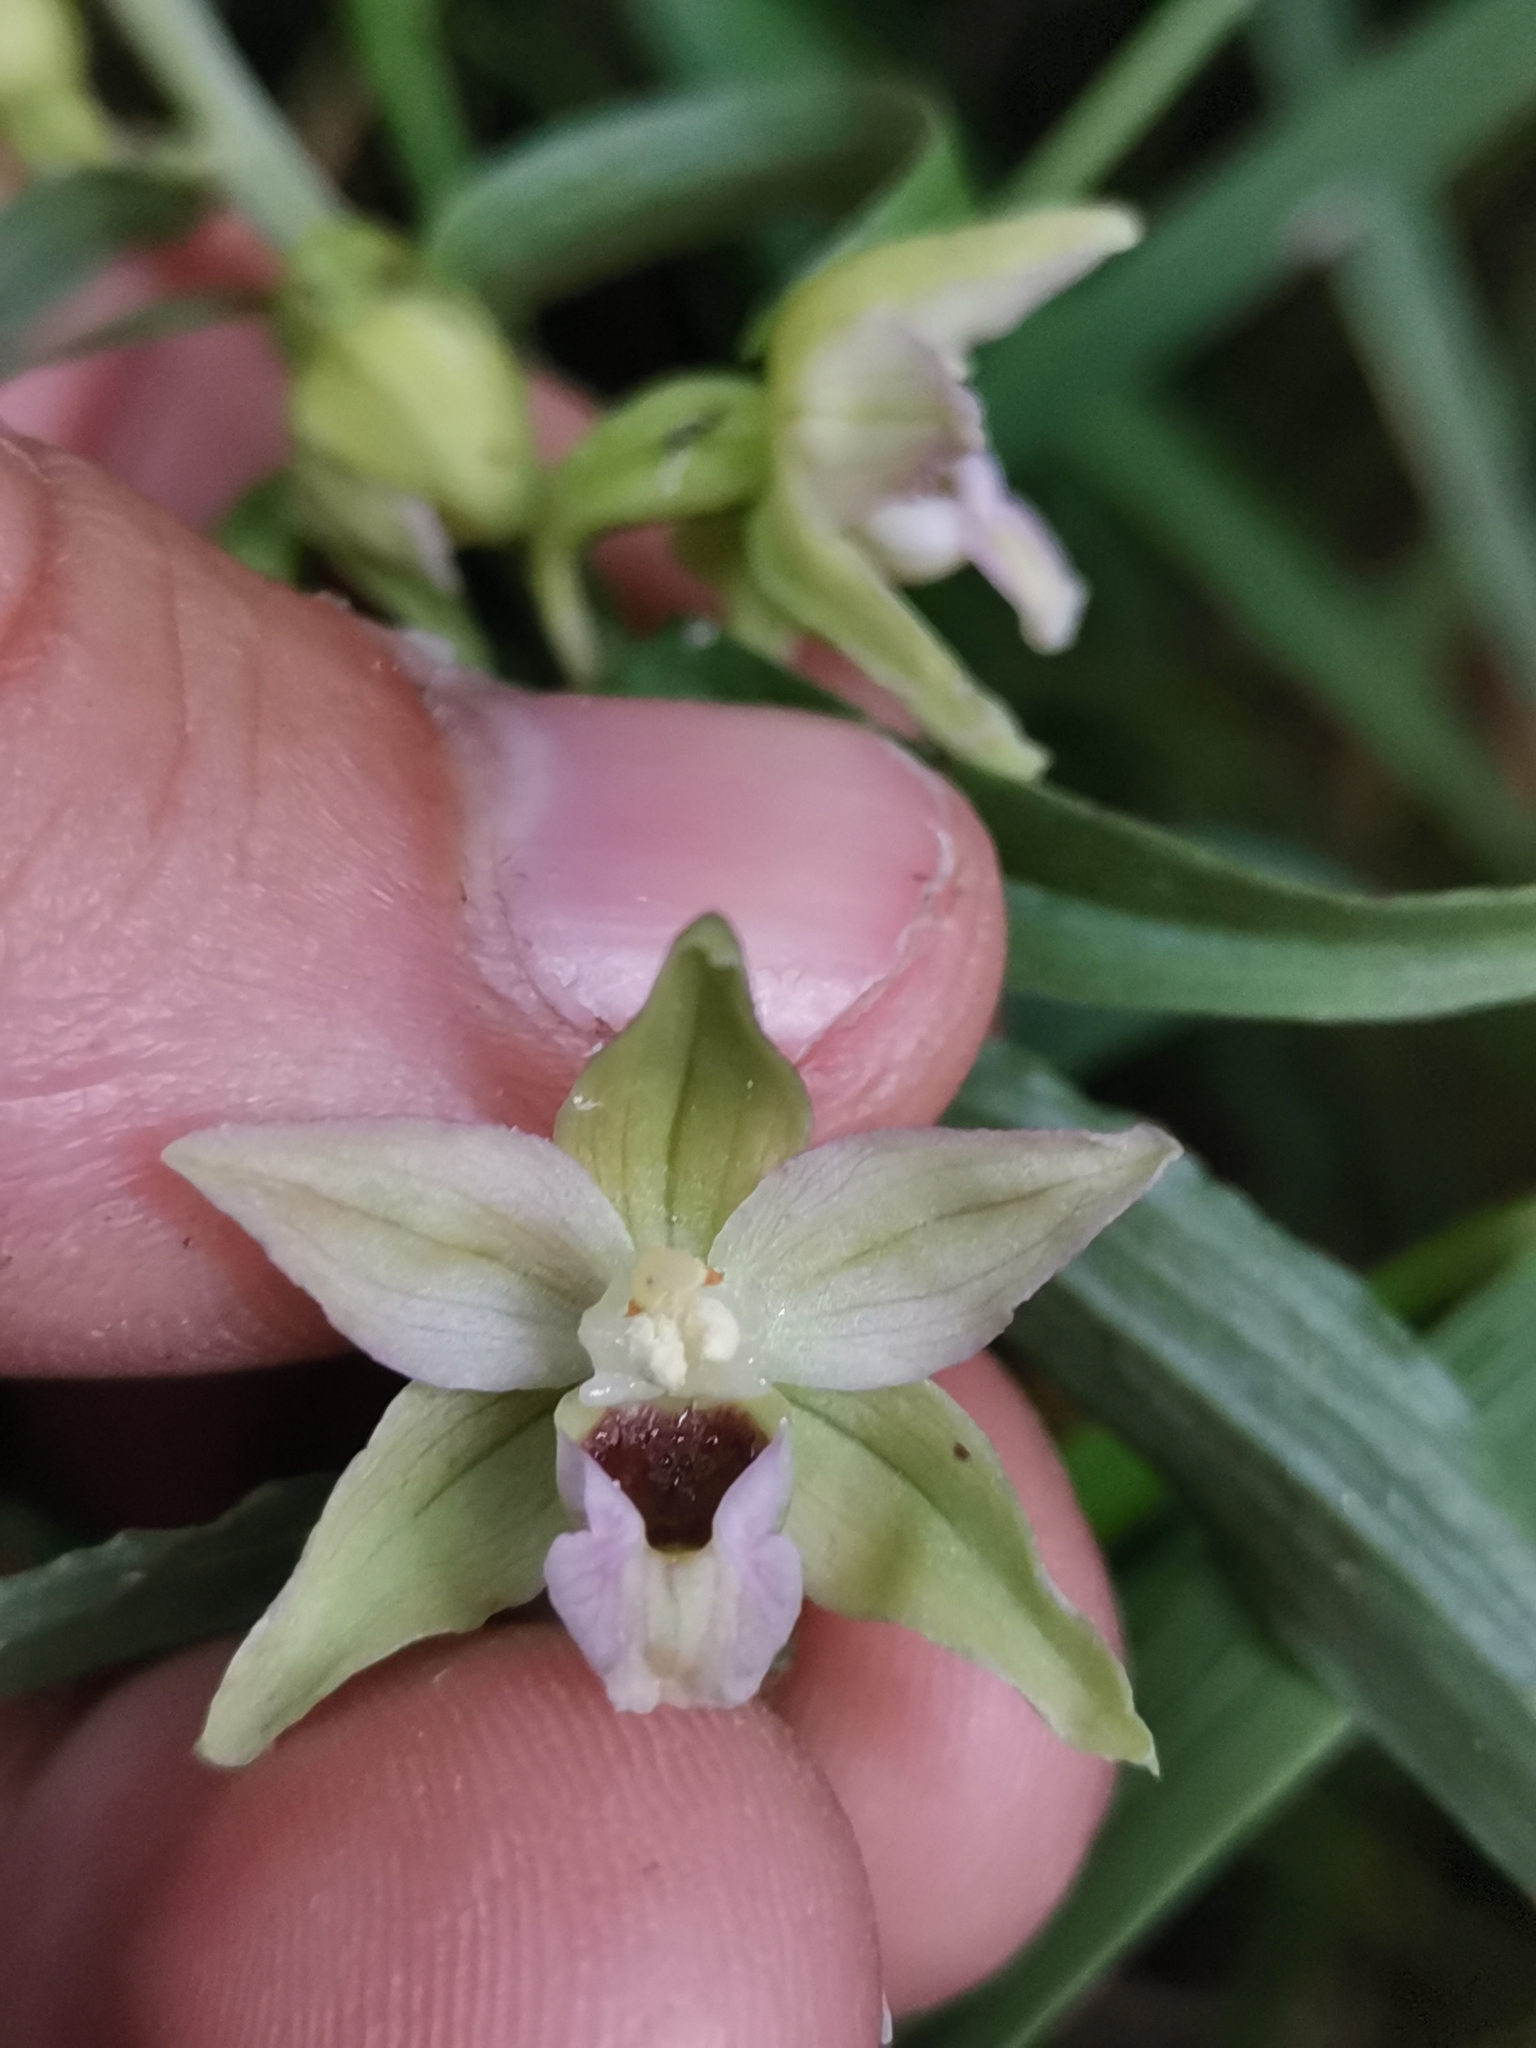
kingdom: Plantae
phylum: Tracheophyta
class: Liliopsida
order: Asparagales
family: Orchidaceae
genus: Epipactis
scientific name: Epipactis muelleri
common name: Mueller's epipactis
